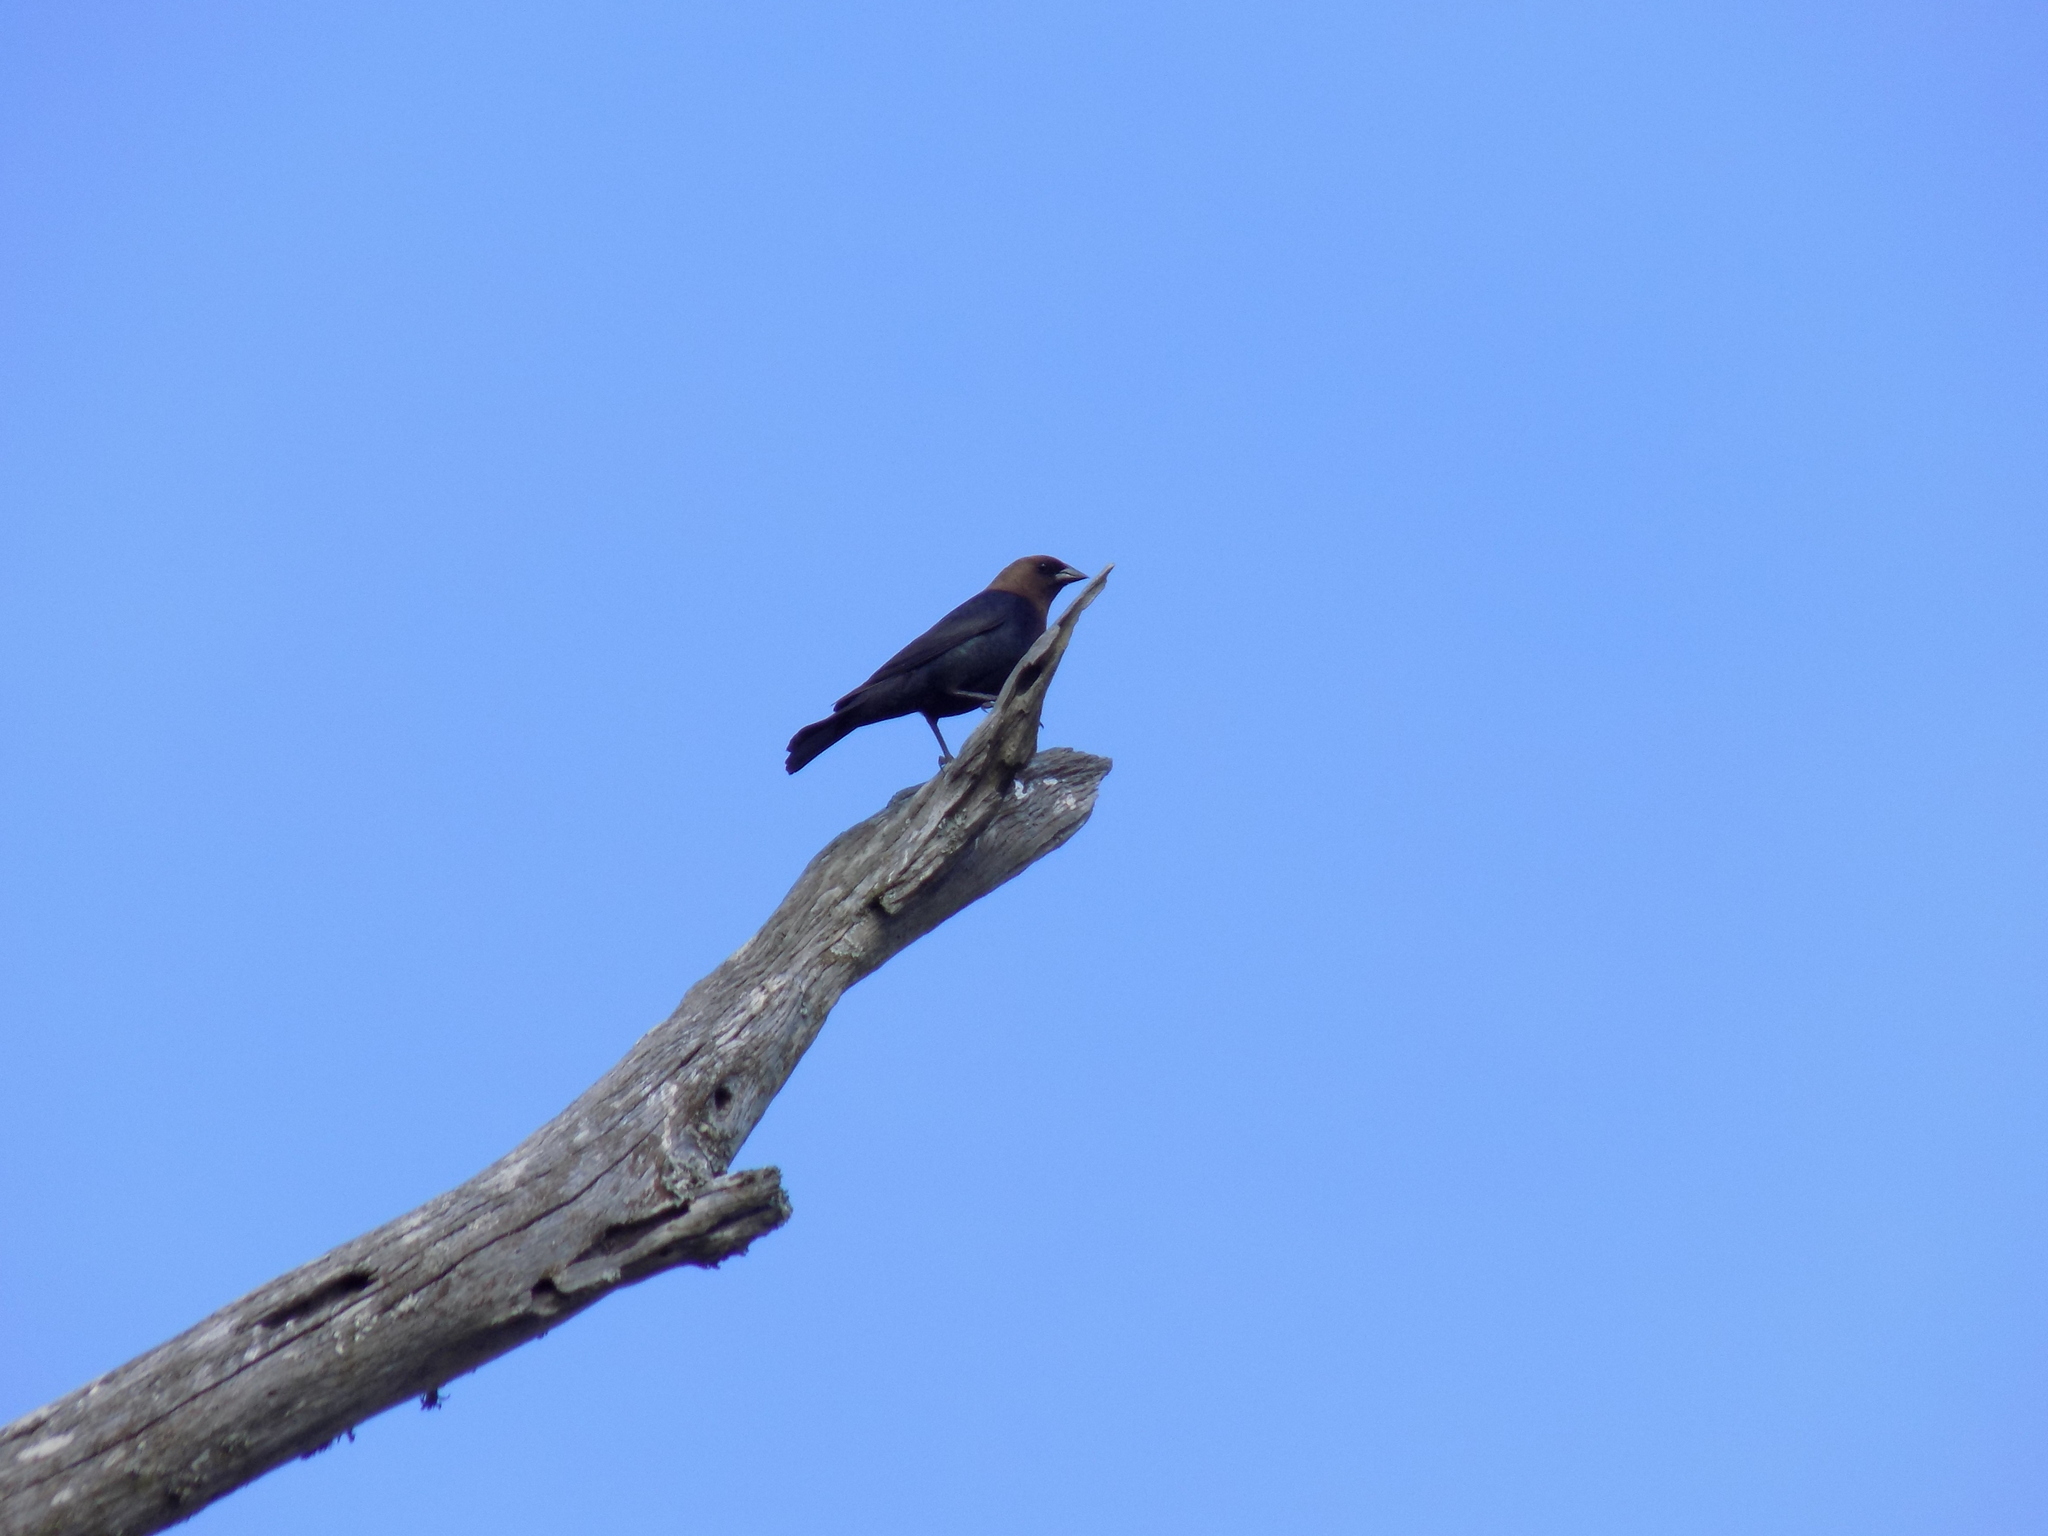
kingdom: Animalia
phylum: Chordata
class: Aves
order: Passeriformes
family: Icteridae
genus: Molothrus
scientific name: Molothrus ater
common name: Brown-headed cowbird
